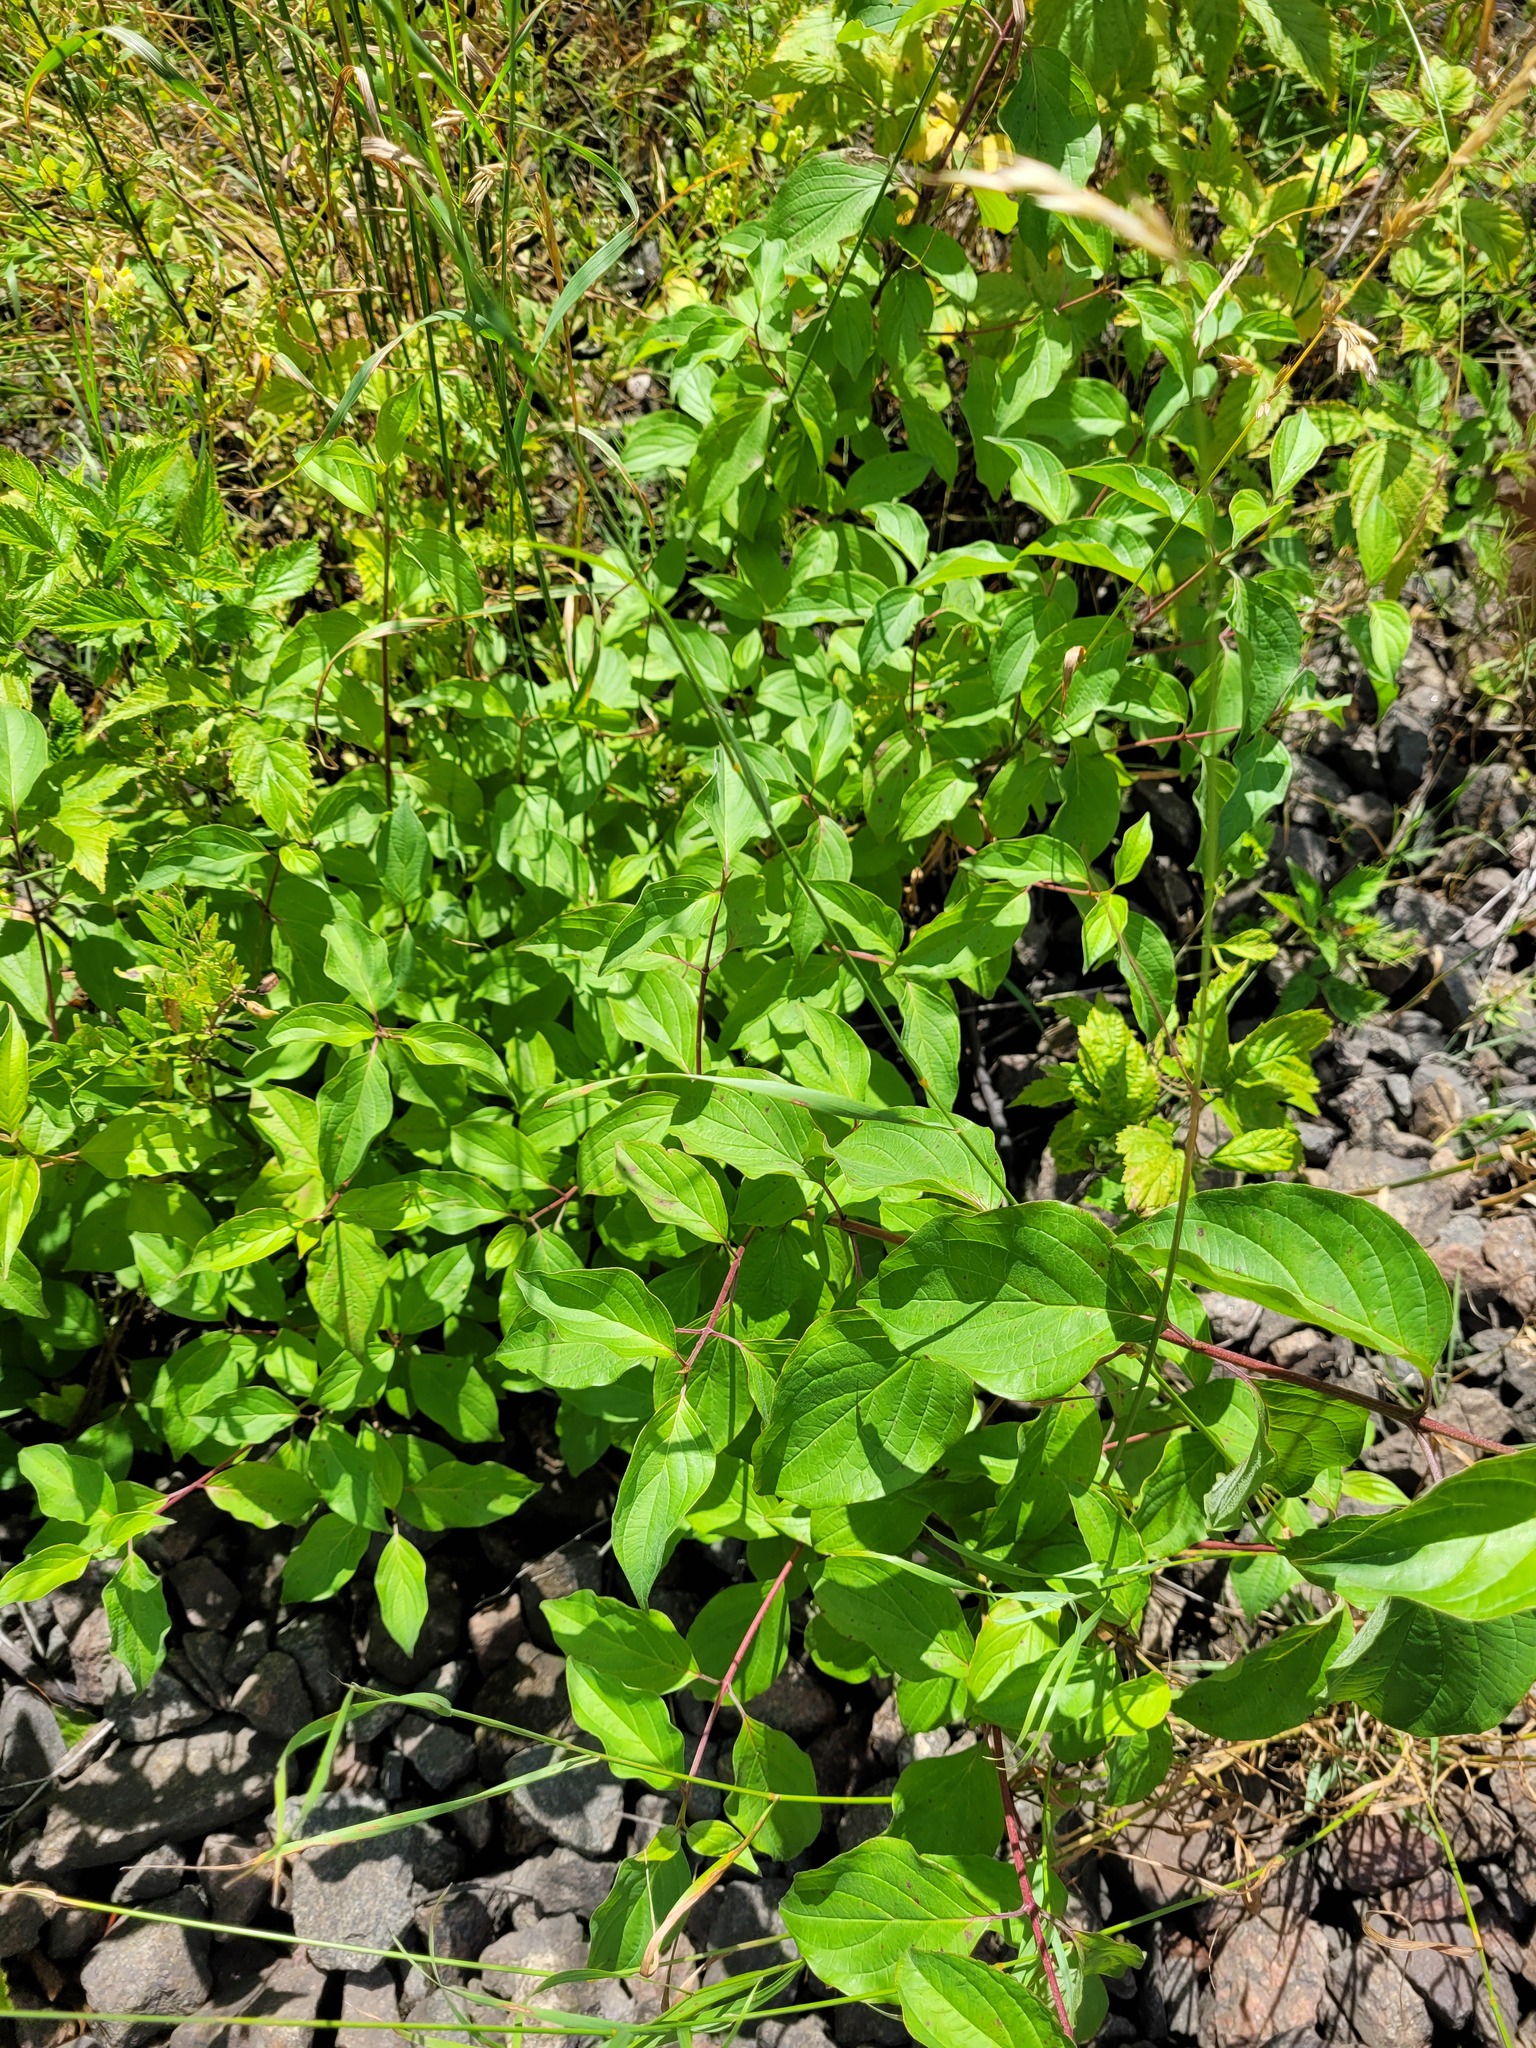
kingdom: Plantae
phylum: Tracheophyta
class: Magnoliopsida
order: Cornales
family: Cornaceae
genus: Cornus
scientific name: Cornus sanguinea
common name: Dogwood
